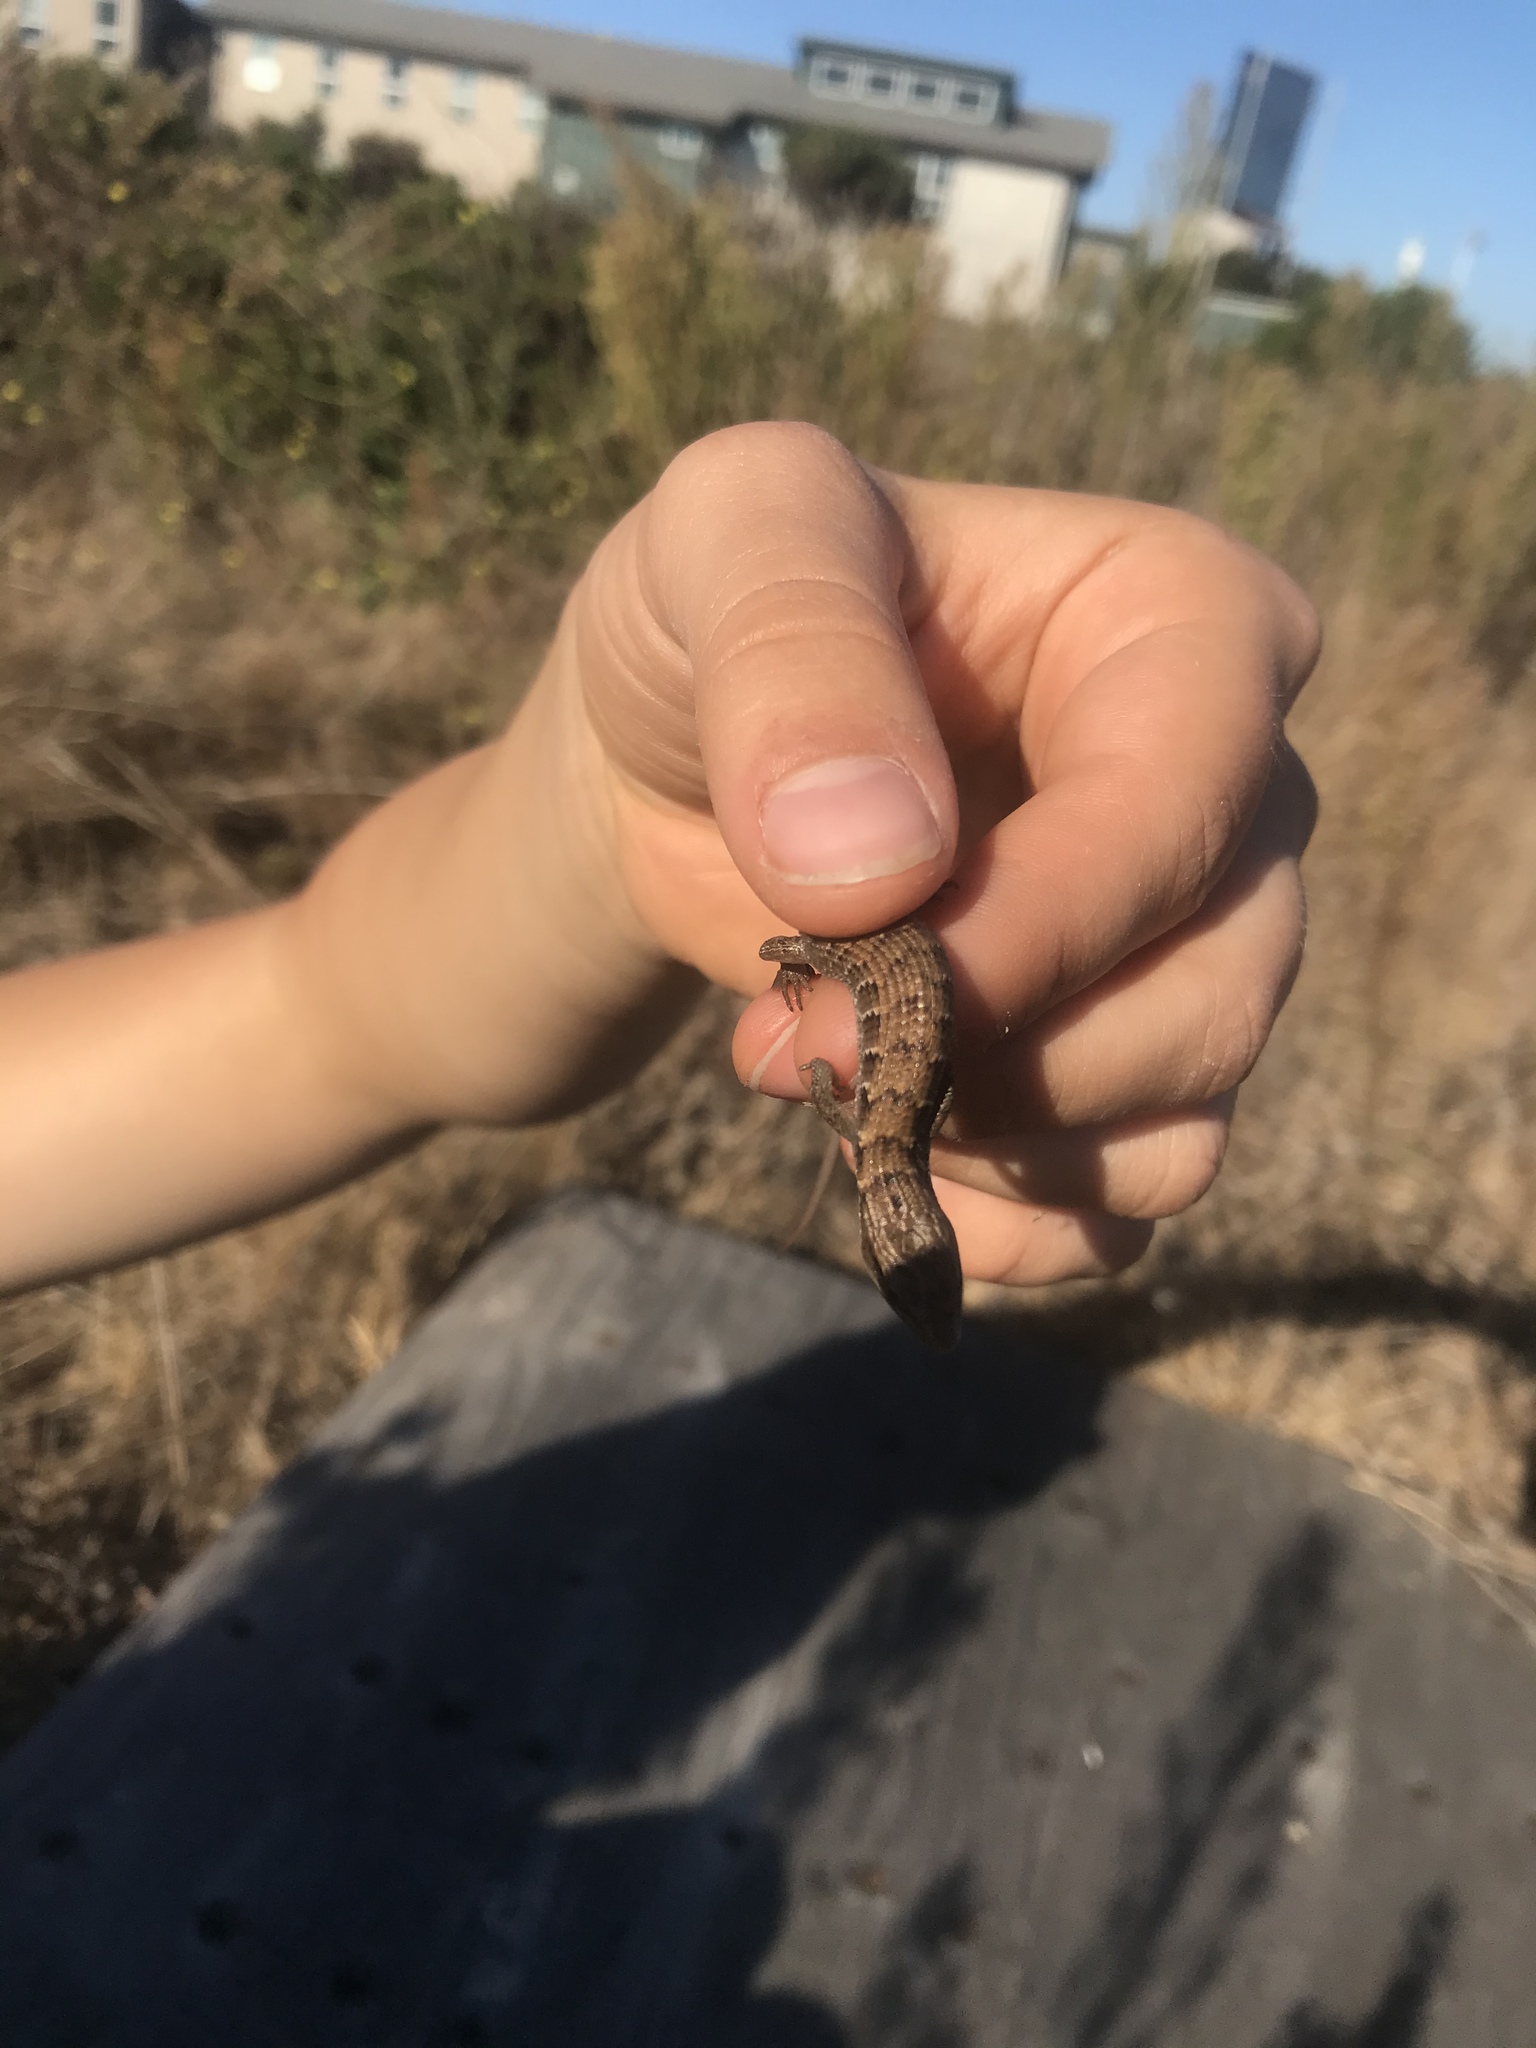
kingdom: Animalia
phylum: Chordata
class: Squamata
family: Anguidae
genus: Elgaria
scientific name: Elgaria multicarinata
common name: Southern alligator lizard
